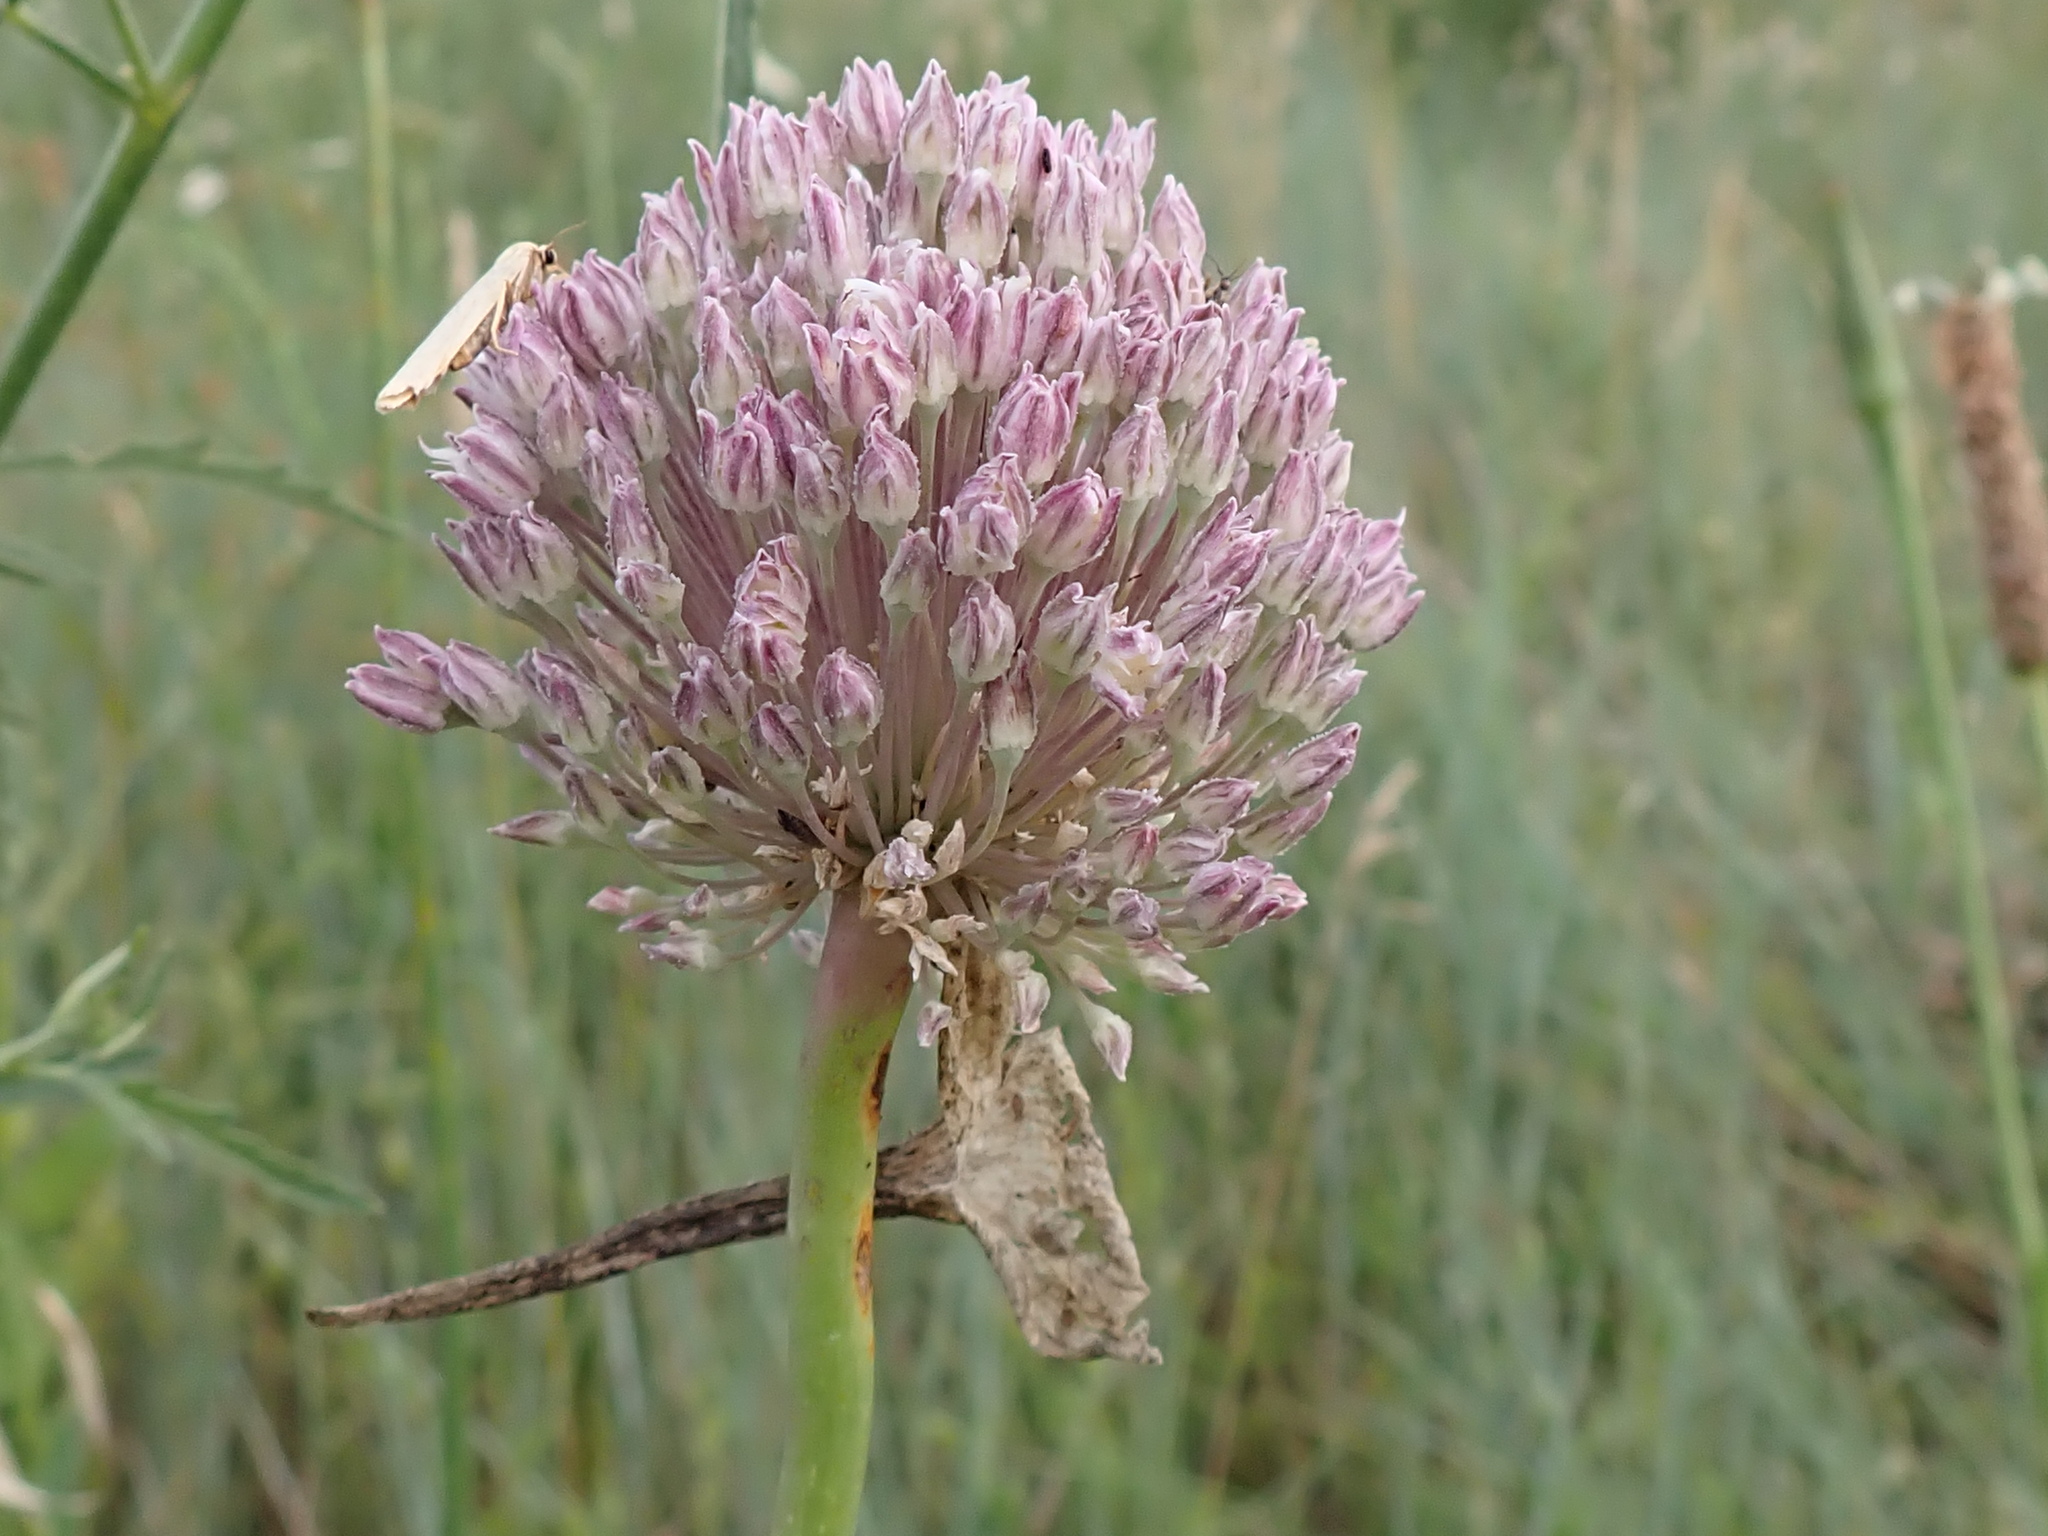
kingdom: Plantae
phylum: Tracheophyta
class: Liliopsida
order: Asparagales
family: Amaryllidaceae
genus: Allium
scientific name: Allium ampeloprasum
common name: Wild leek
